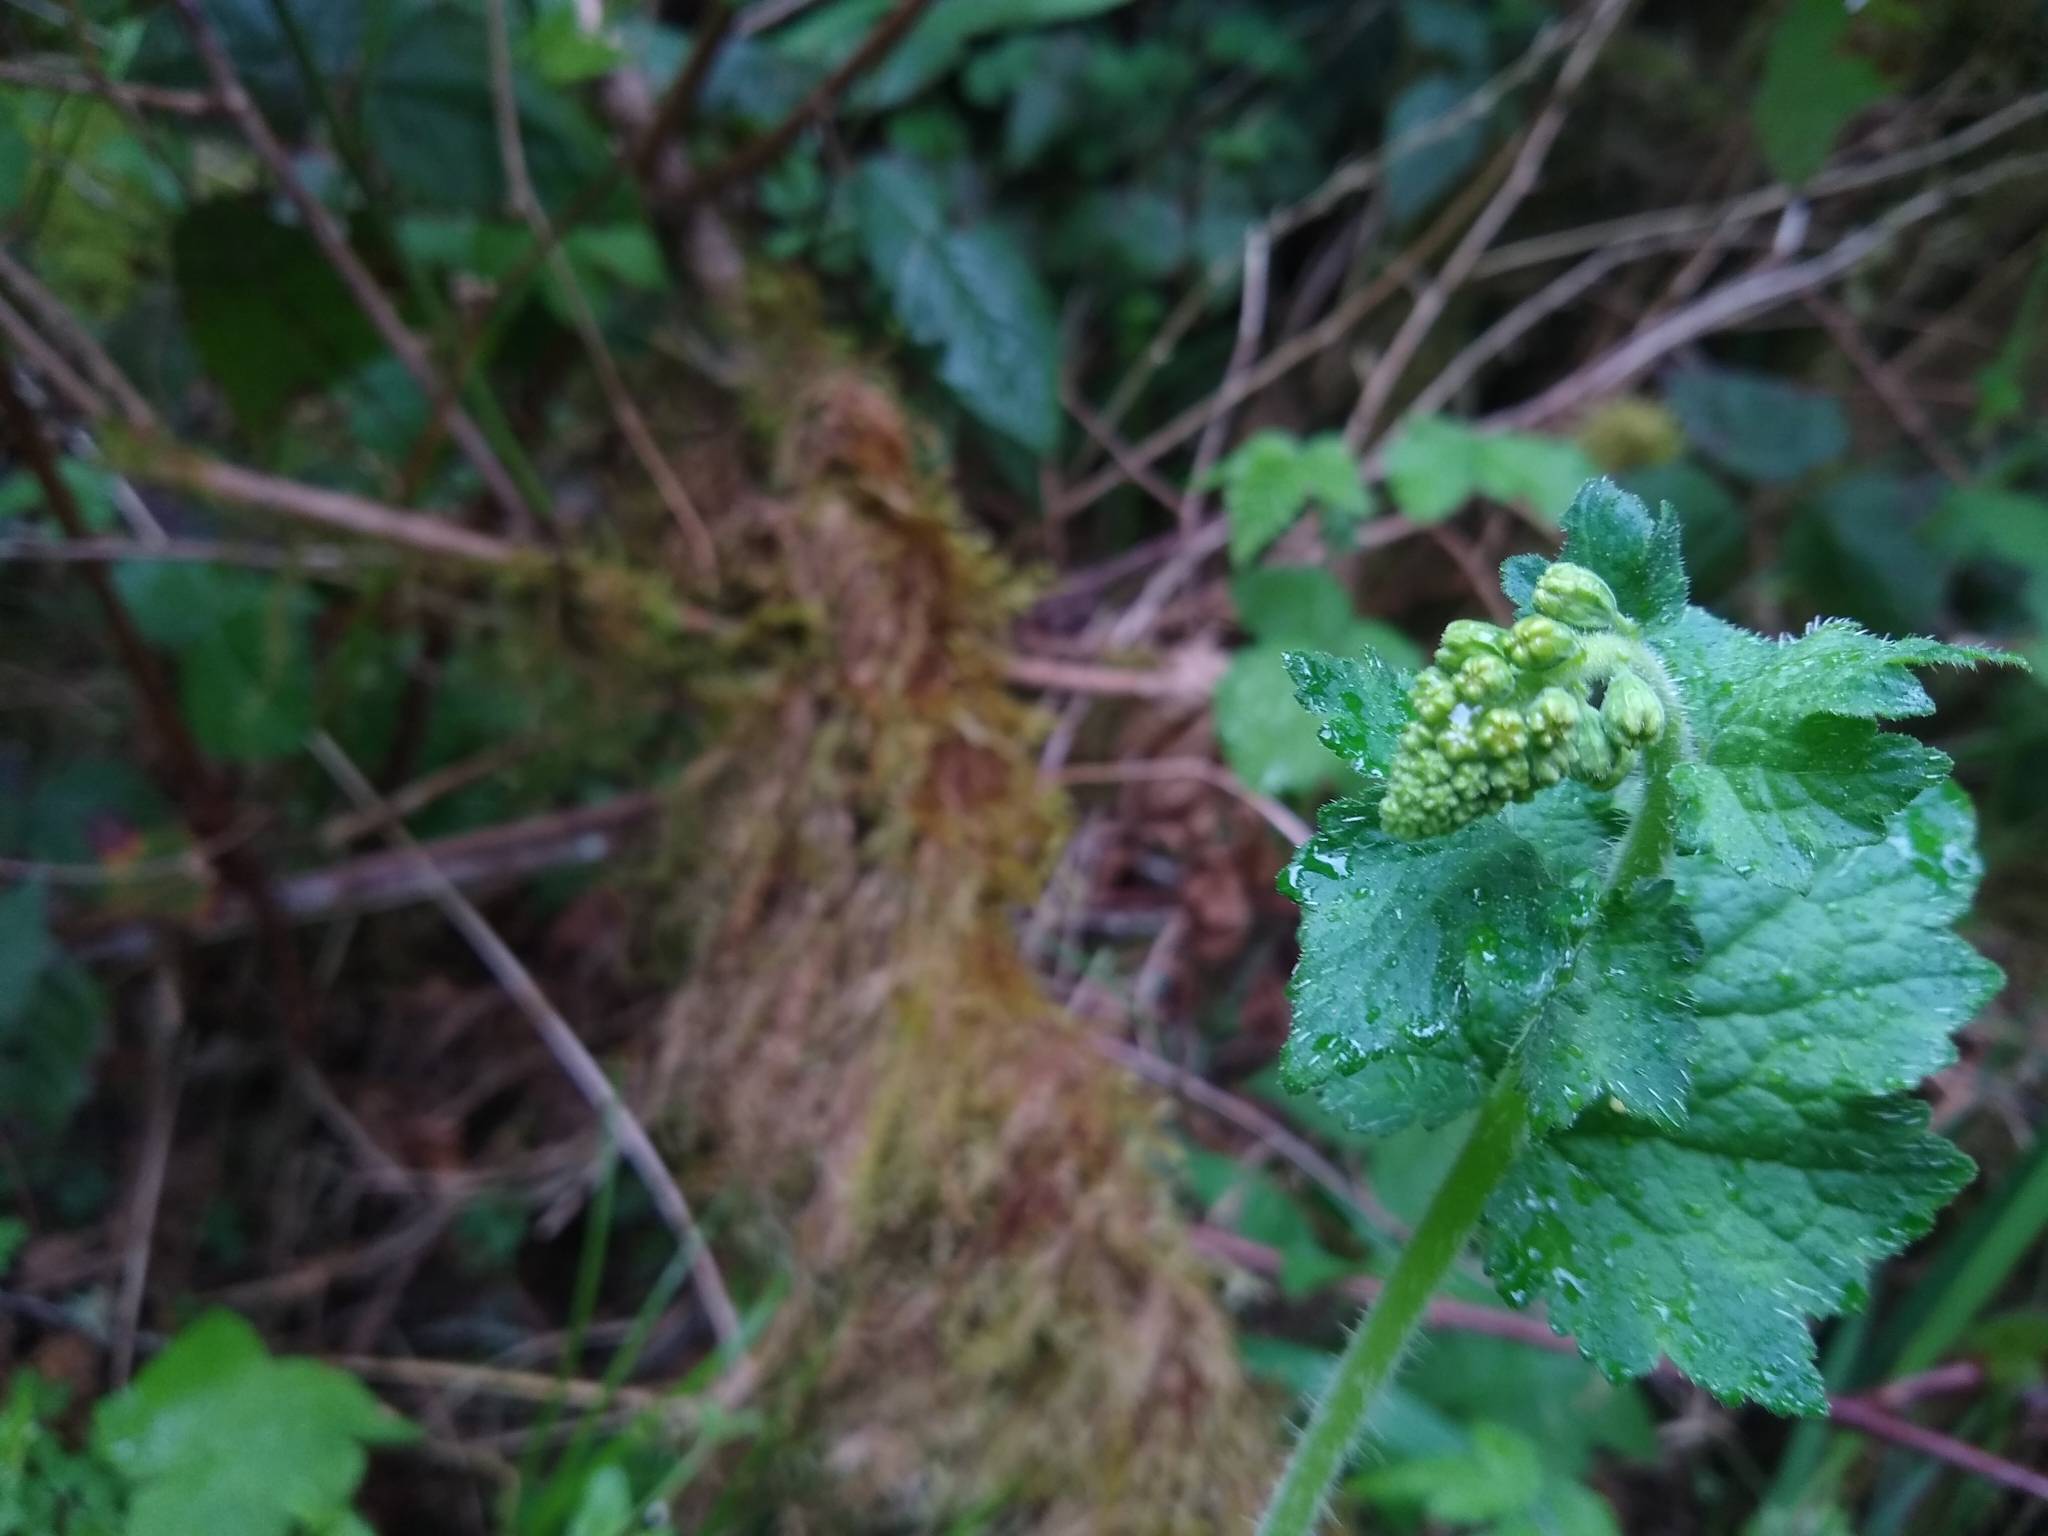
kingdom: Plantae
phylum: Tracheophyta
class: Magnoliopsida
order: Saxifragales
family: Saxifragaceae
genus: Tellima
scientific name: Tellima grandiflora
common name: Fringecups
